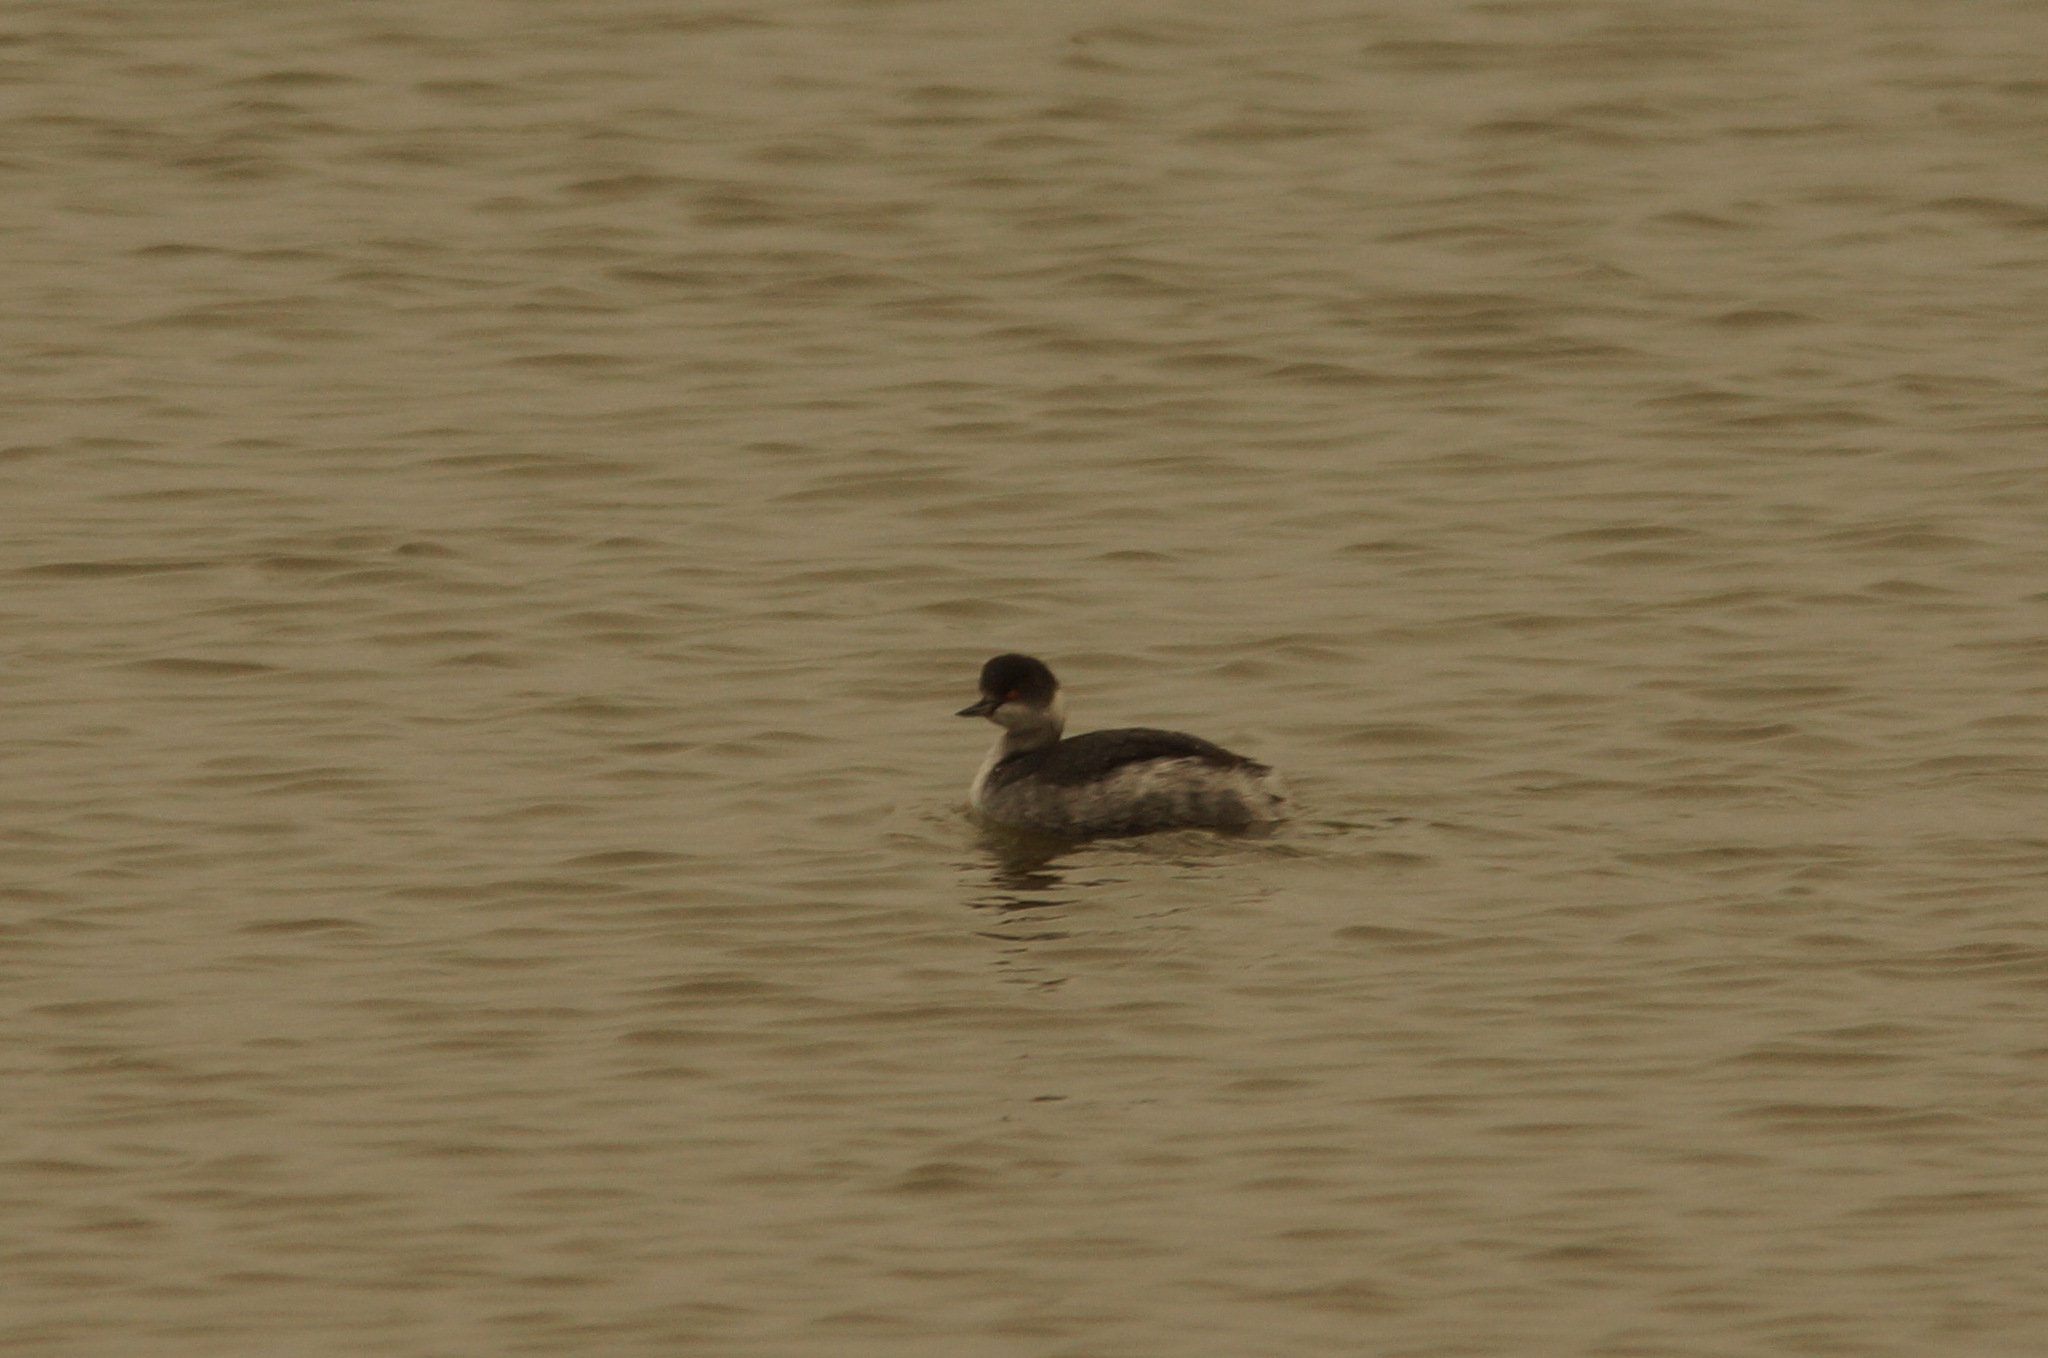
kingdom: Animalia
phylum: Chordata
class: Aves
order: Podicipediformes
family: Podicipedidae
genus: Podiceps
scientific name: Podiceps nigricollis
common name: Black-necked grebe
